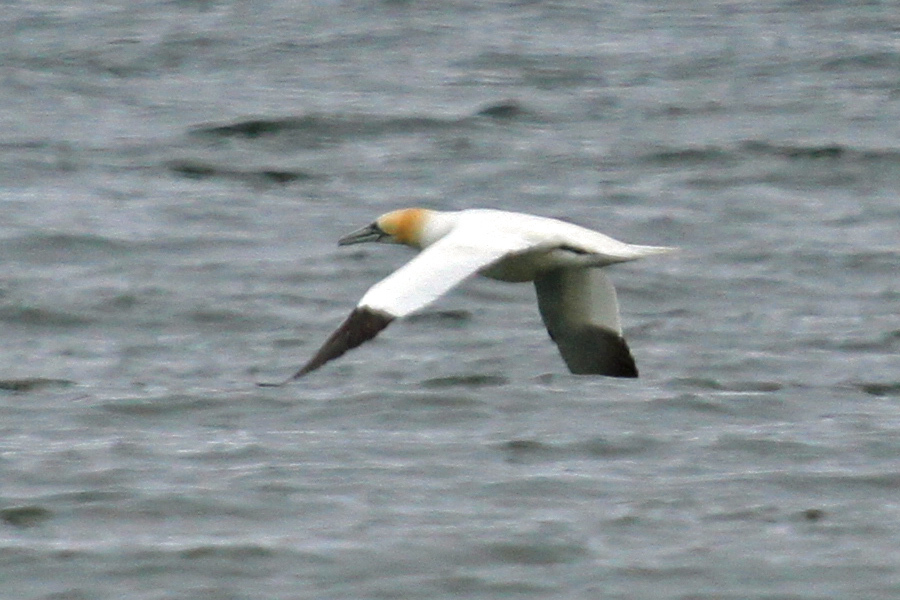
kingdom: Animalia
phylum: Chordata
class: Aves
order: Suliformes
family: Sulidae
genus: Morus
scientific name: Morus bassanus
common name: Northern gannet
